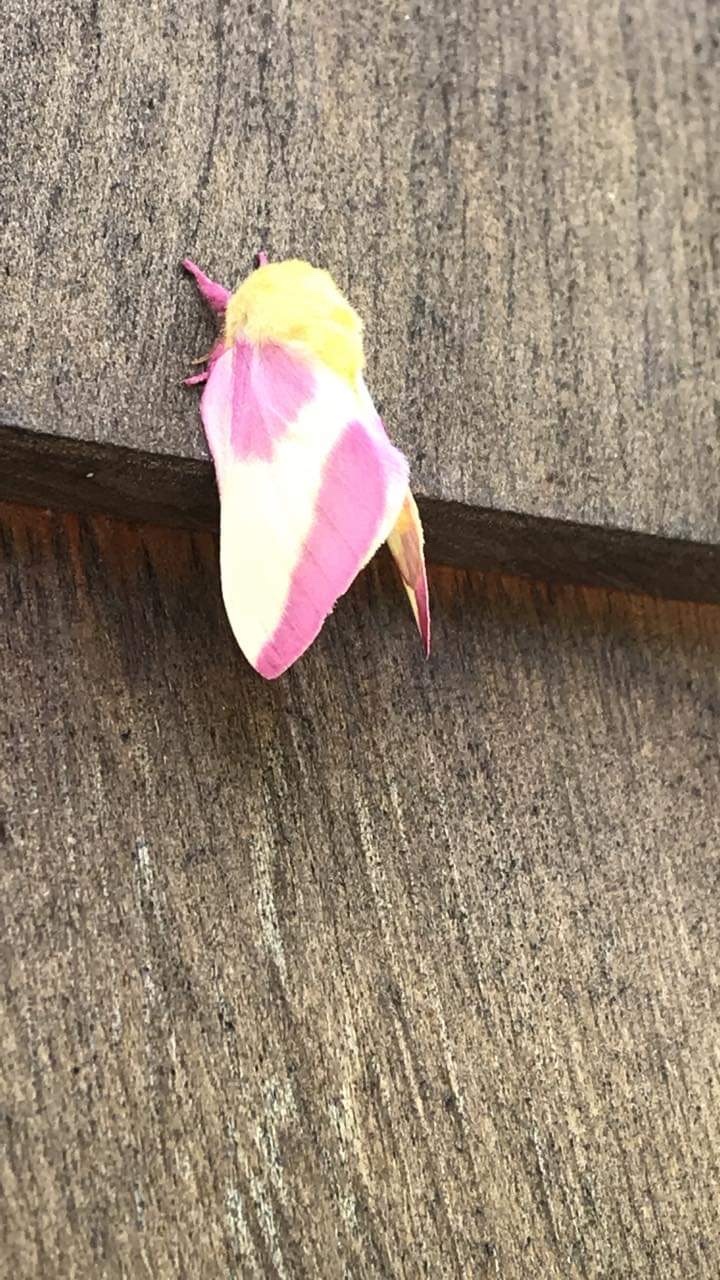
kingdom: Animalia
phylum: Arthropoda
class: Insecta
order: Lepidoptera
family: Saturniidae
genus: Dryocampa
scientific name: Dryocampa rubicunda
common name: Rosy maple moth
